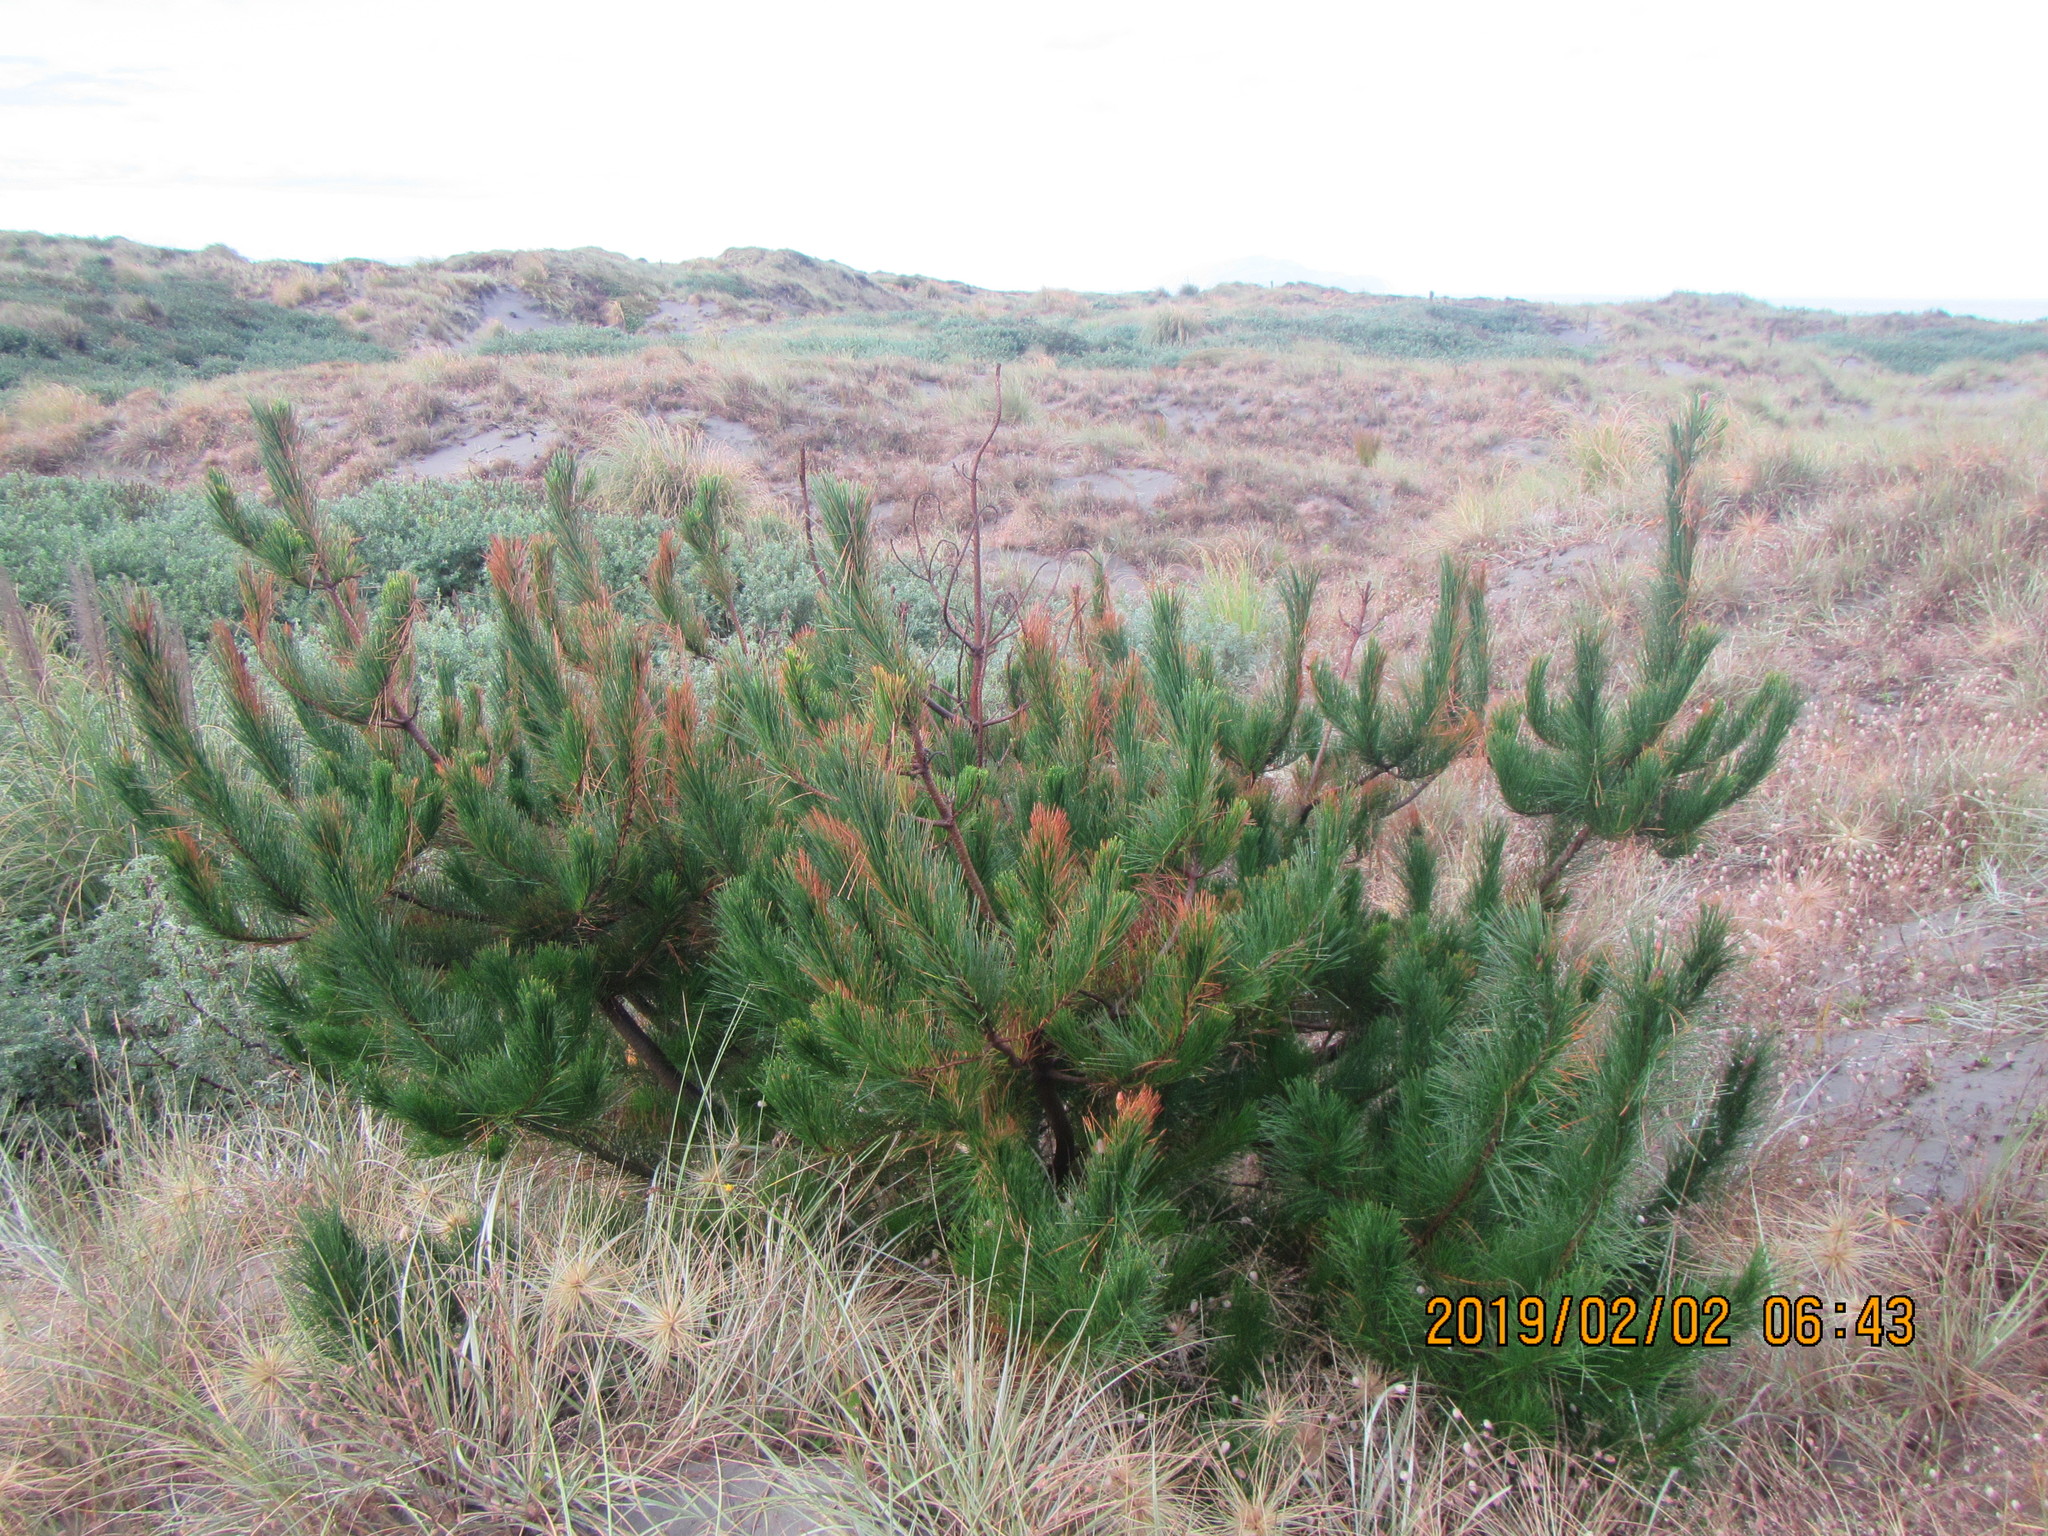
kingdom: Plantae
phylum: Tracheophyta
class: Pinopsida
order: Pinales
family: Pinaceae
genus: Pinus
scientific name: Pinus radiata
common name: Monterey pine
